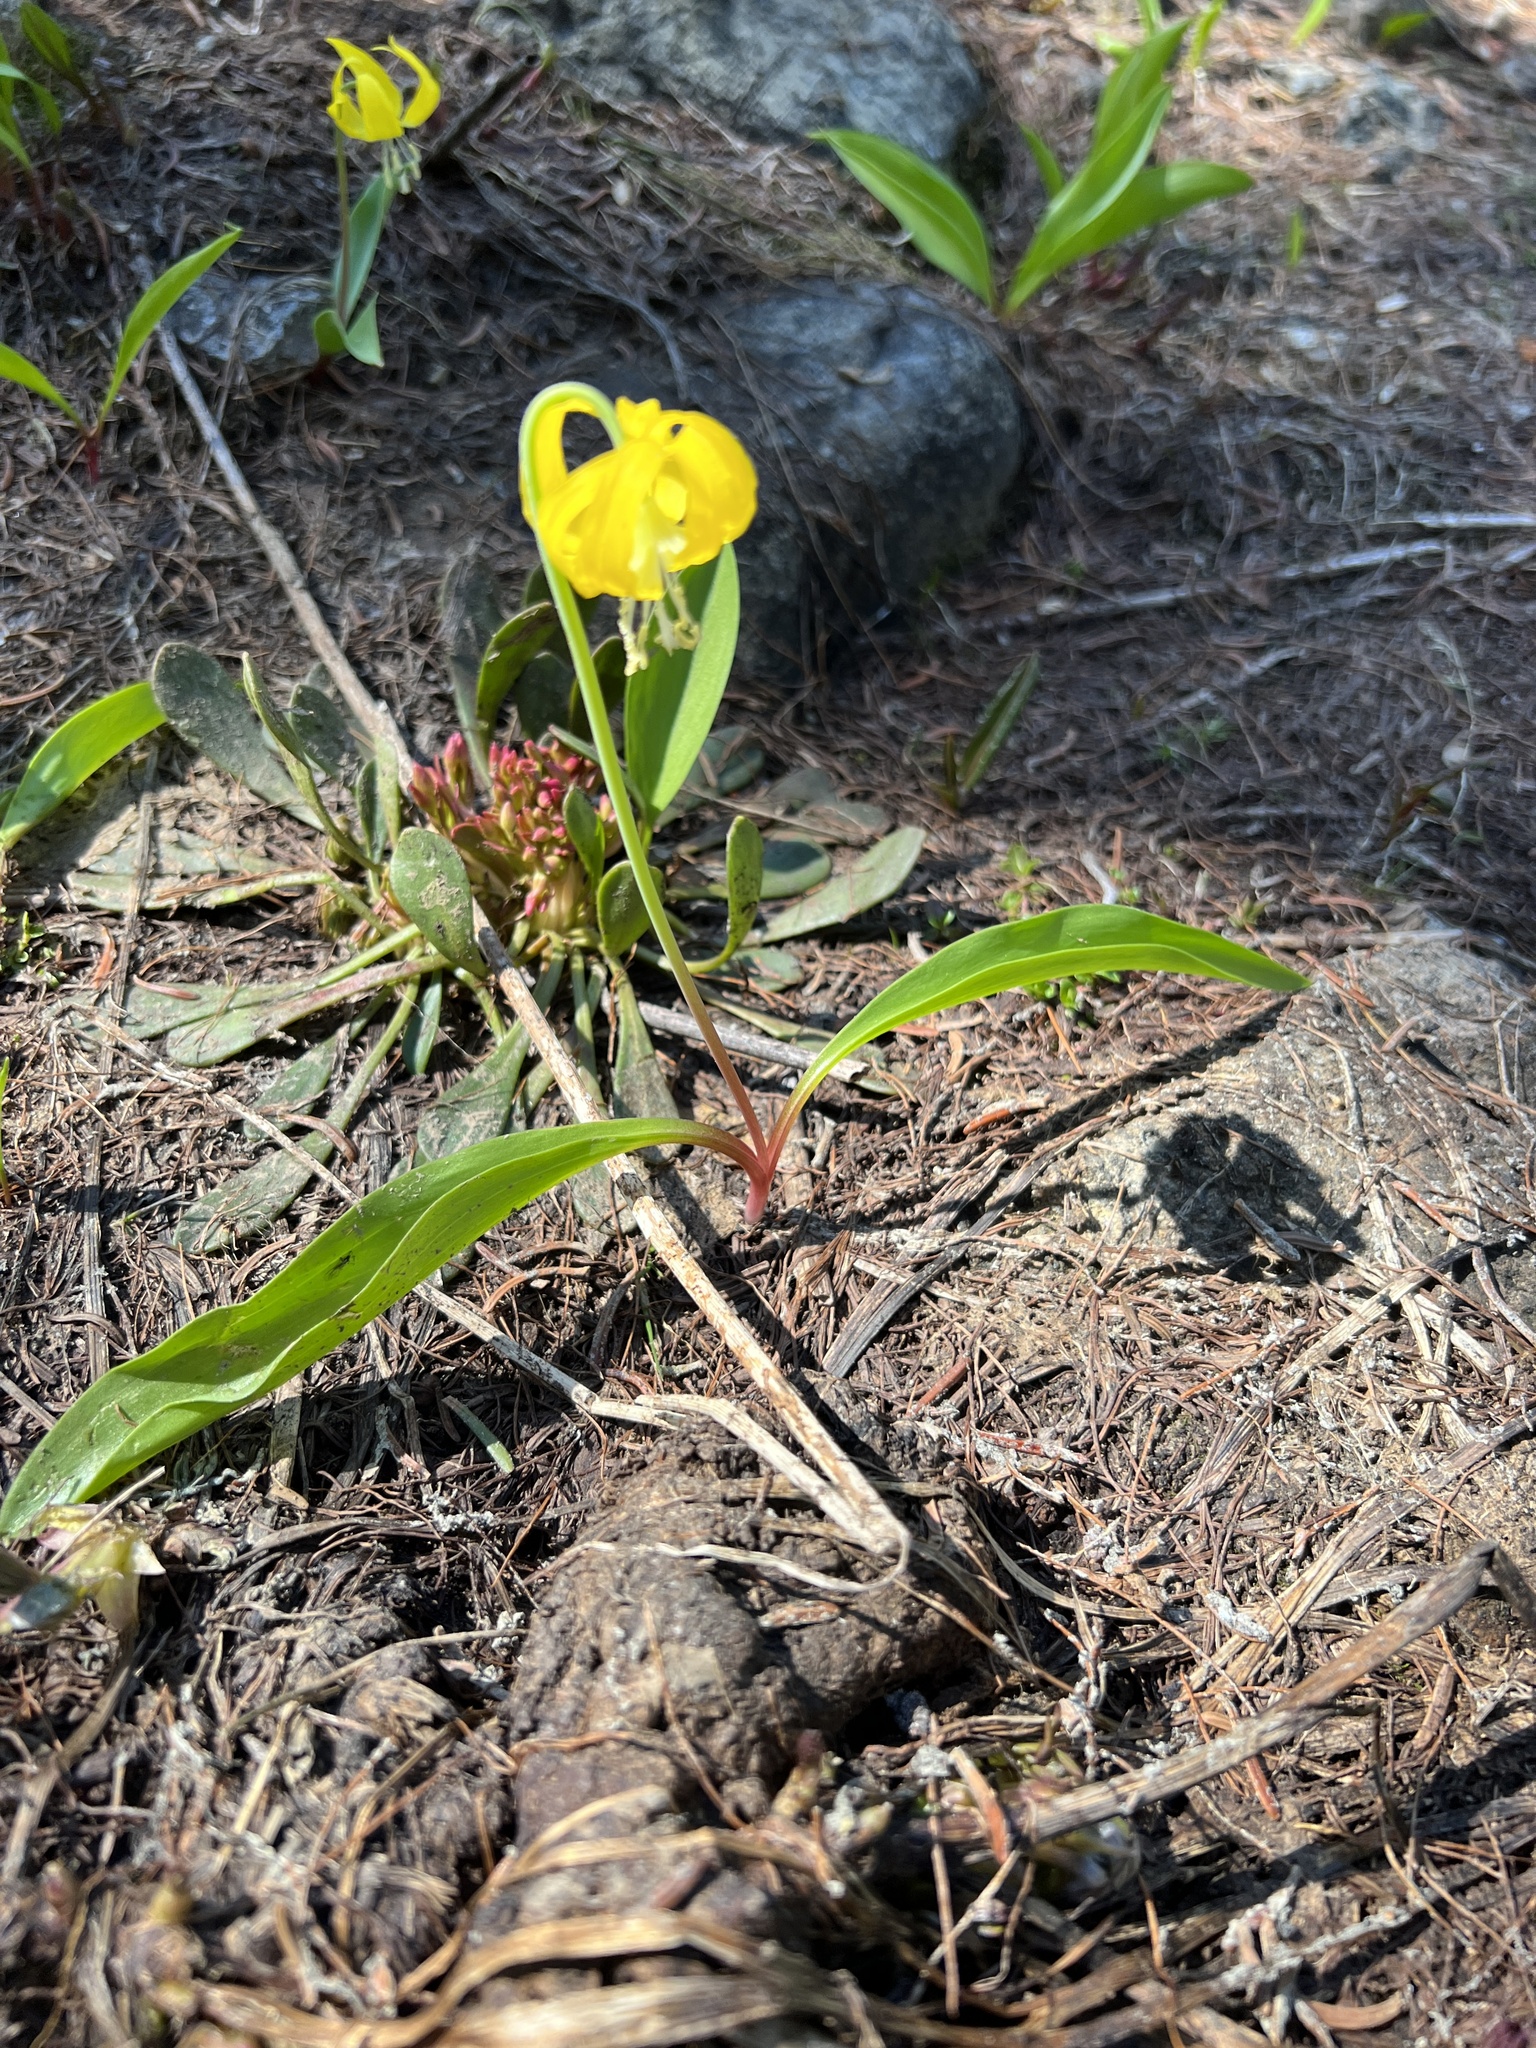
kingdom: Plantae
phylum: Tracheophyta
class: Liliopsida
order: Liliales
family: Liliaceae
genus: Erythronium
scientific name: Erythronium grandiflorum
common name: Avalanche-lily
